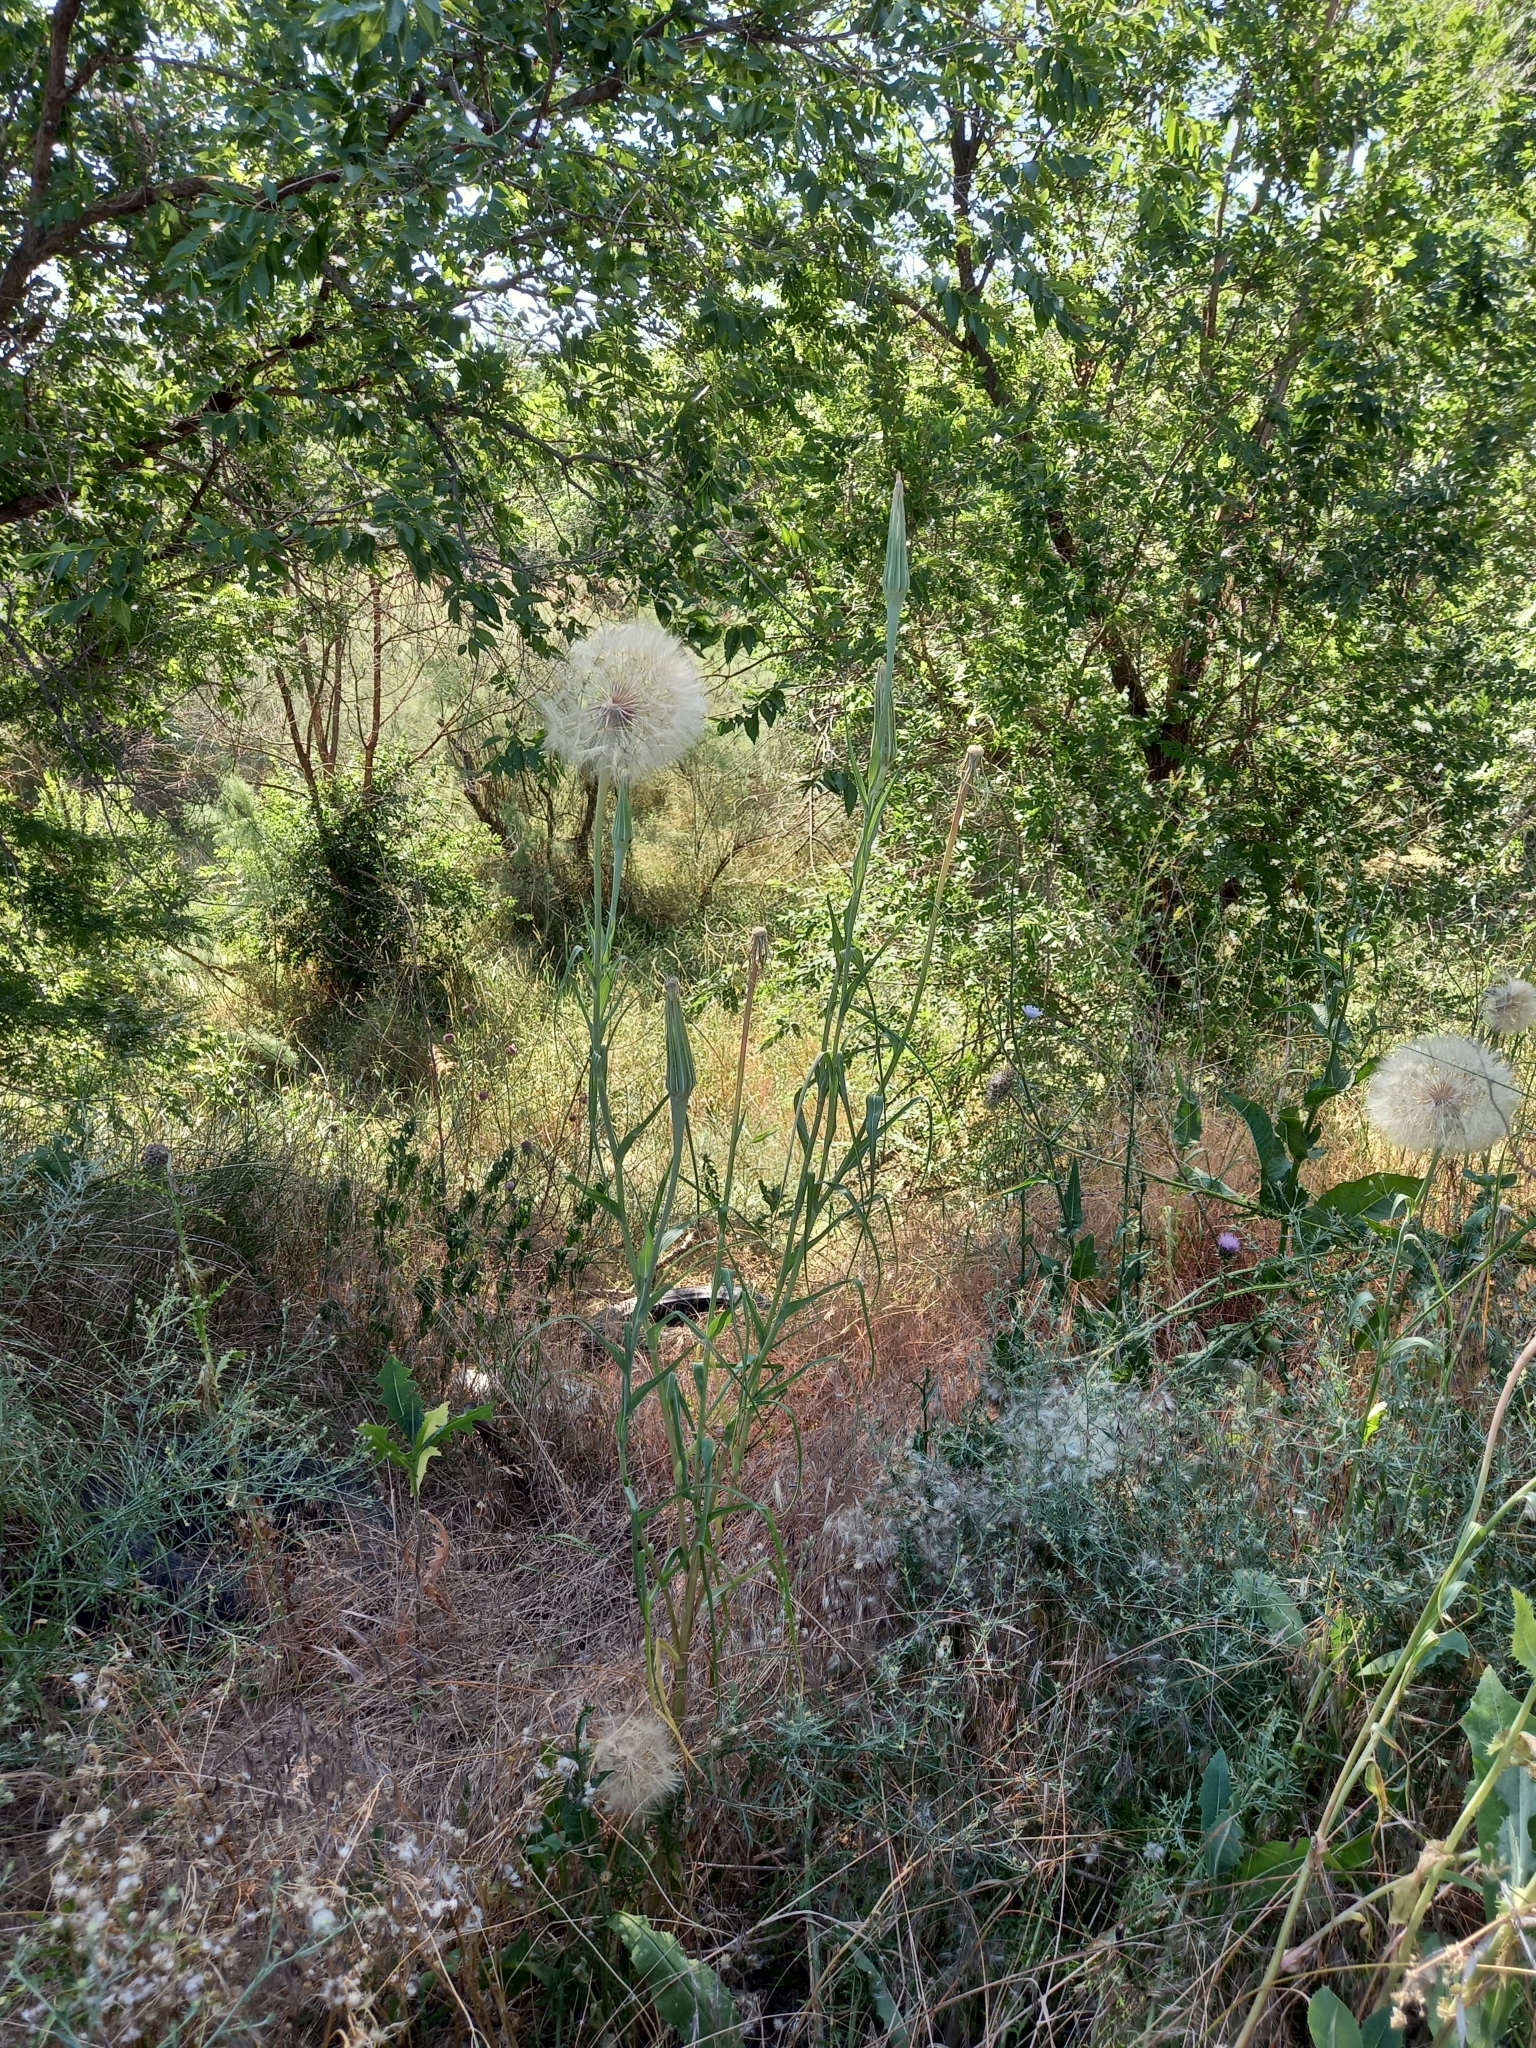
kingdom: Plantae
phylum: Tracheophyta
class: Magnoliopsida
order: Asterales
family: Asteraceae
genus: Tragopogon
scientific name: Tragopogon dubius
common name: Yellow salsify
